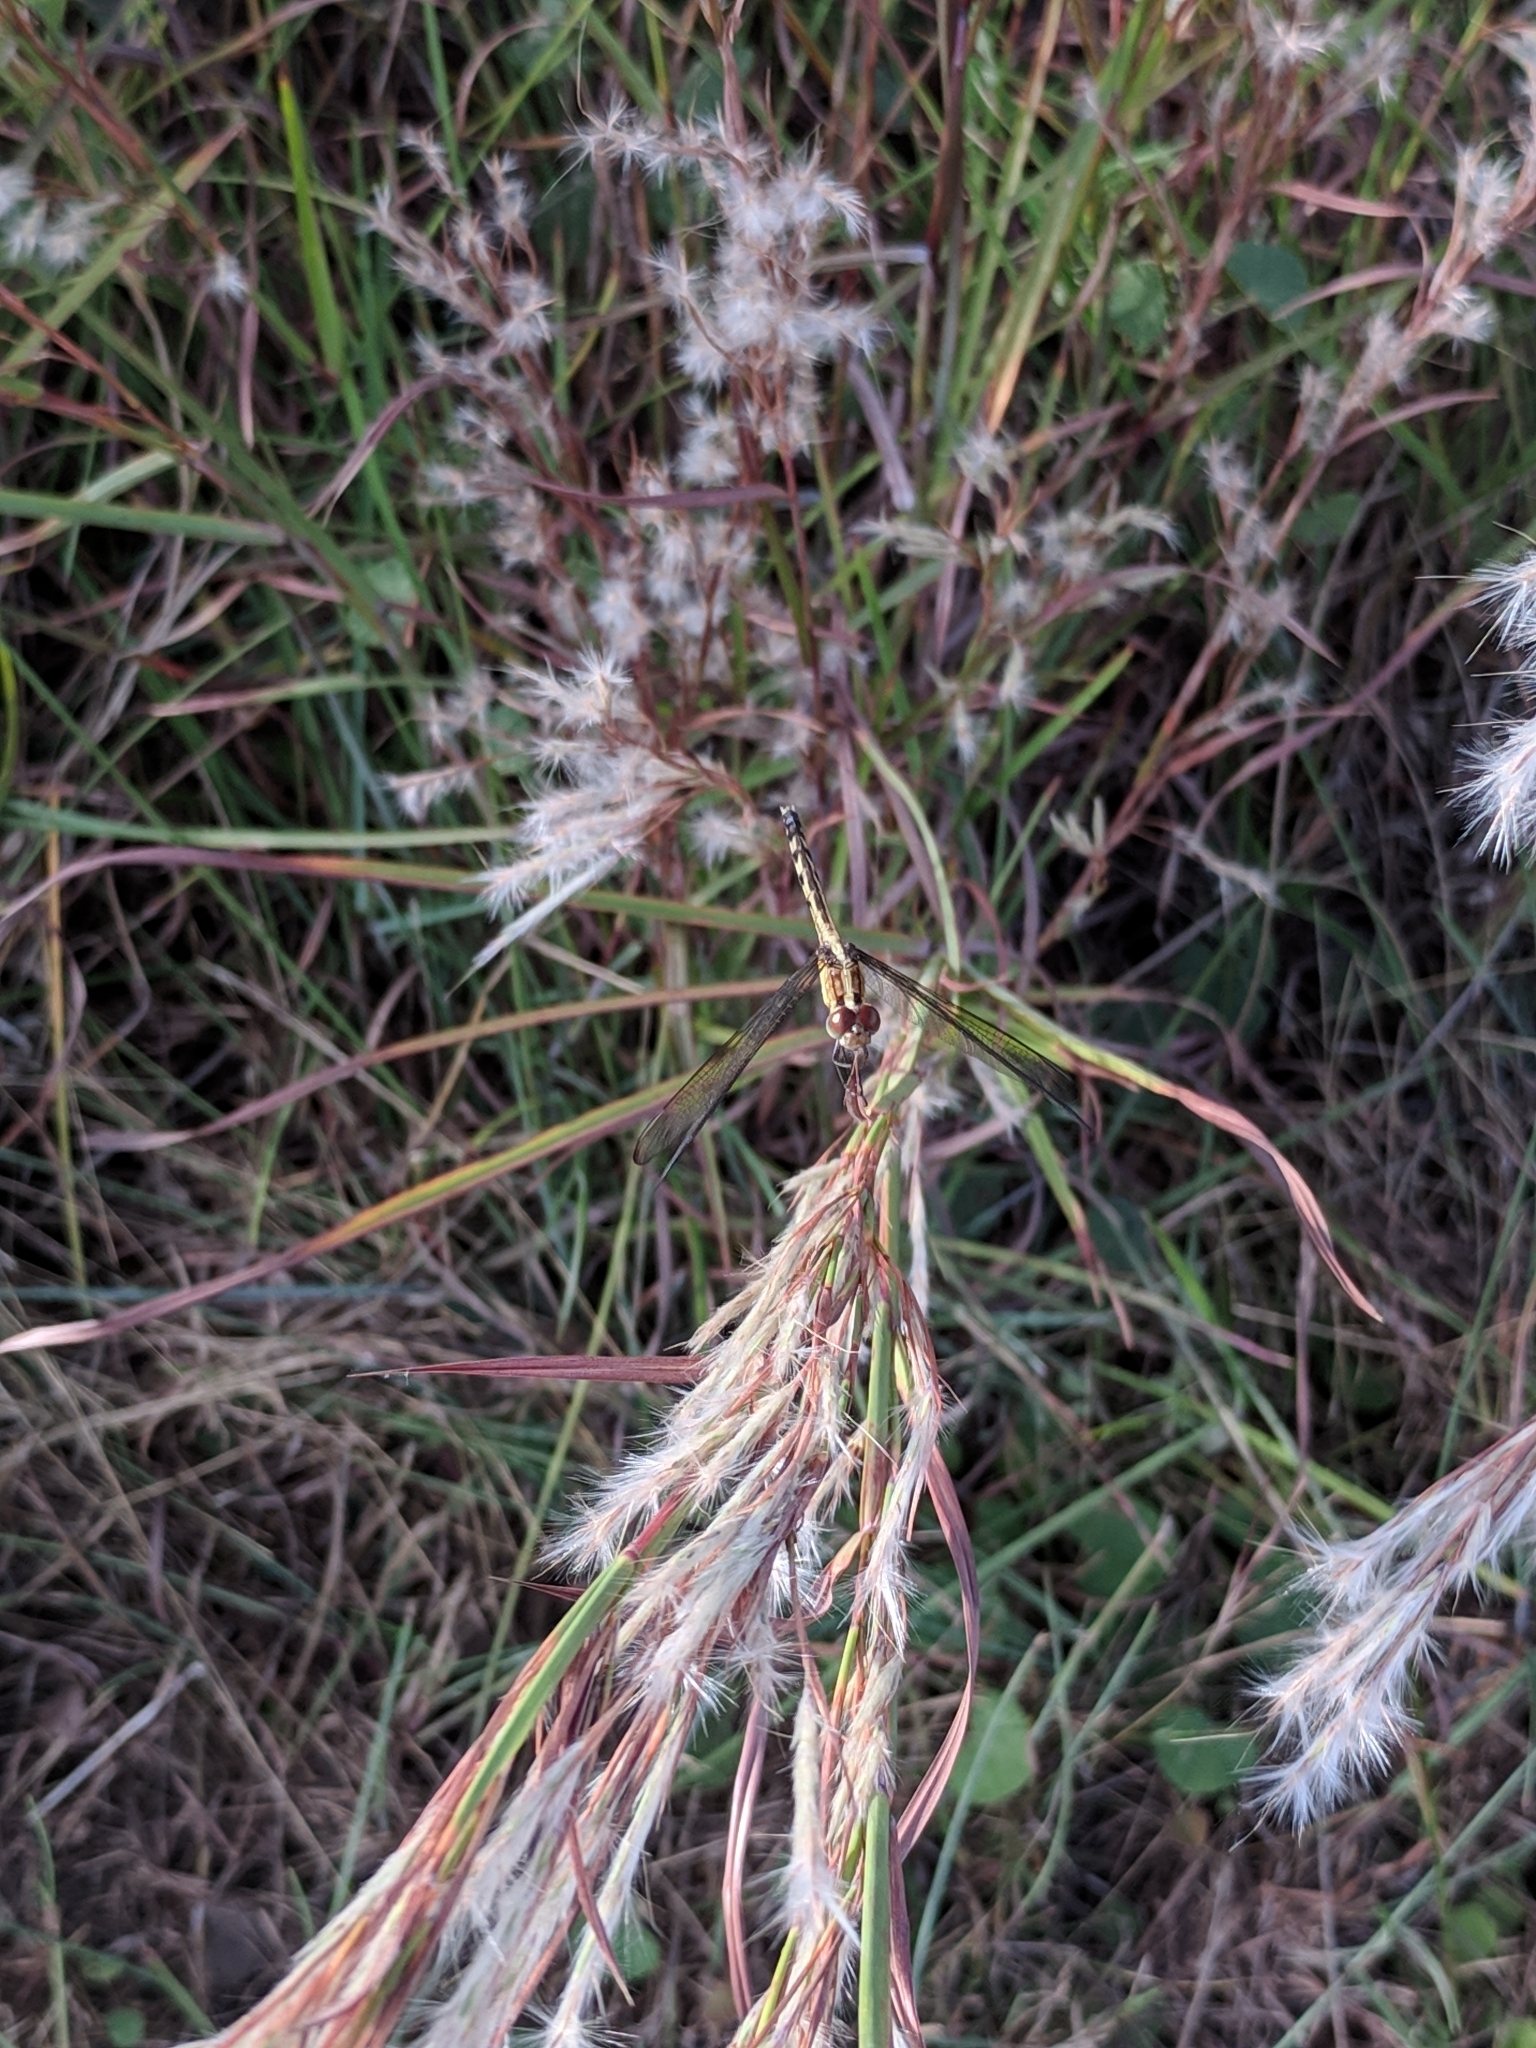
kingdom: Animalia
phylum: Arthropoda
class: Insecta
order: Odonata
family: Libellulidae
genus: Erythrodiplax
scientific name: Erythrodiplax umbrata
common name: Band-winged dragonlet
